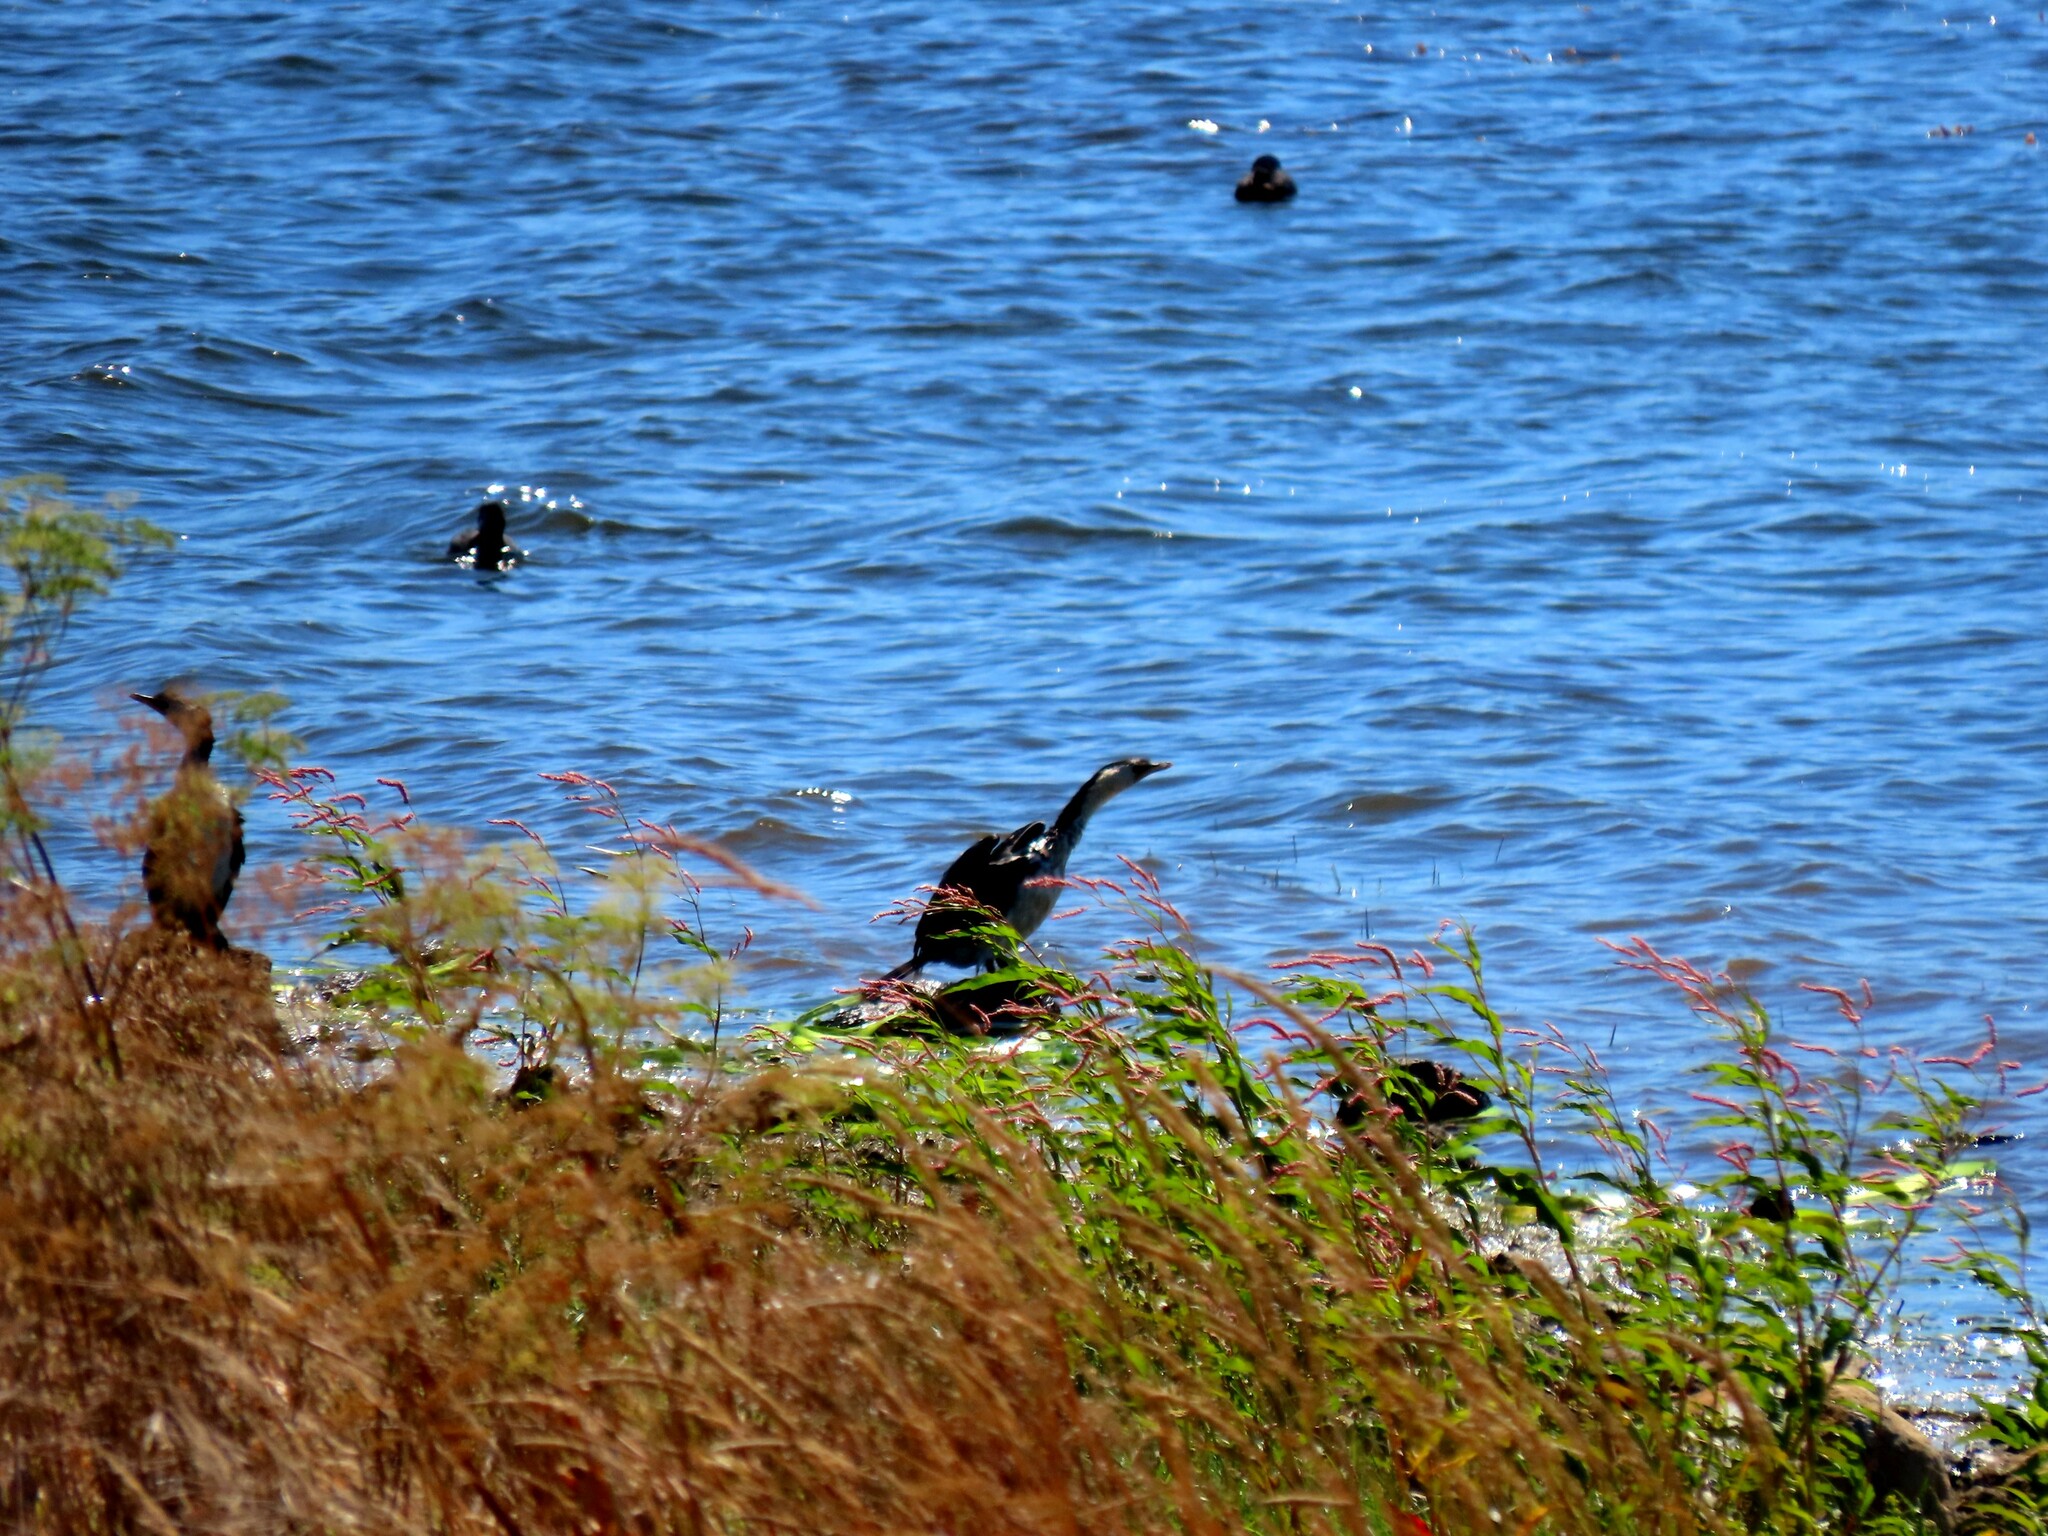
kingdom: Animalia
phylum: Chordata
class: Aves
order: Suliformes
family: Phalacrocoracidae
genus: Microcarbo
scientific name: Microcarbo melanoleucos
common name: Little pied cormorant
